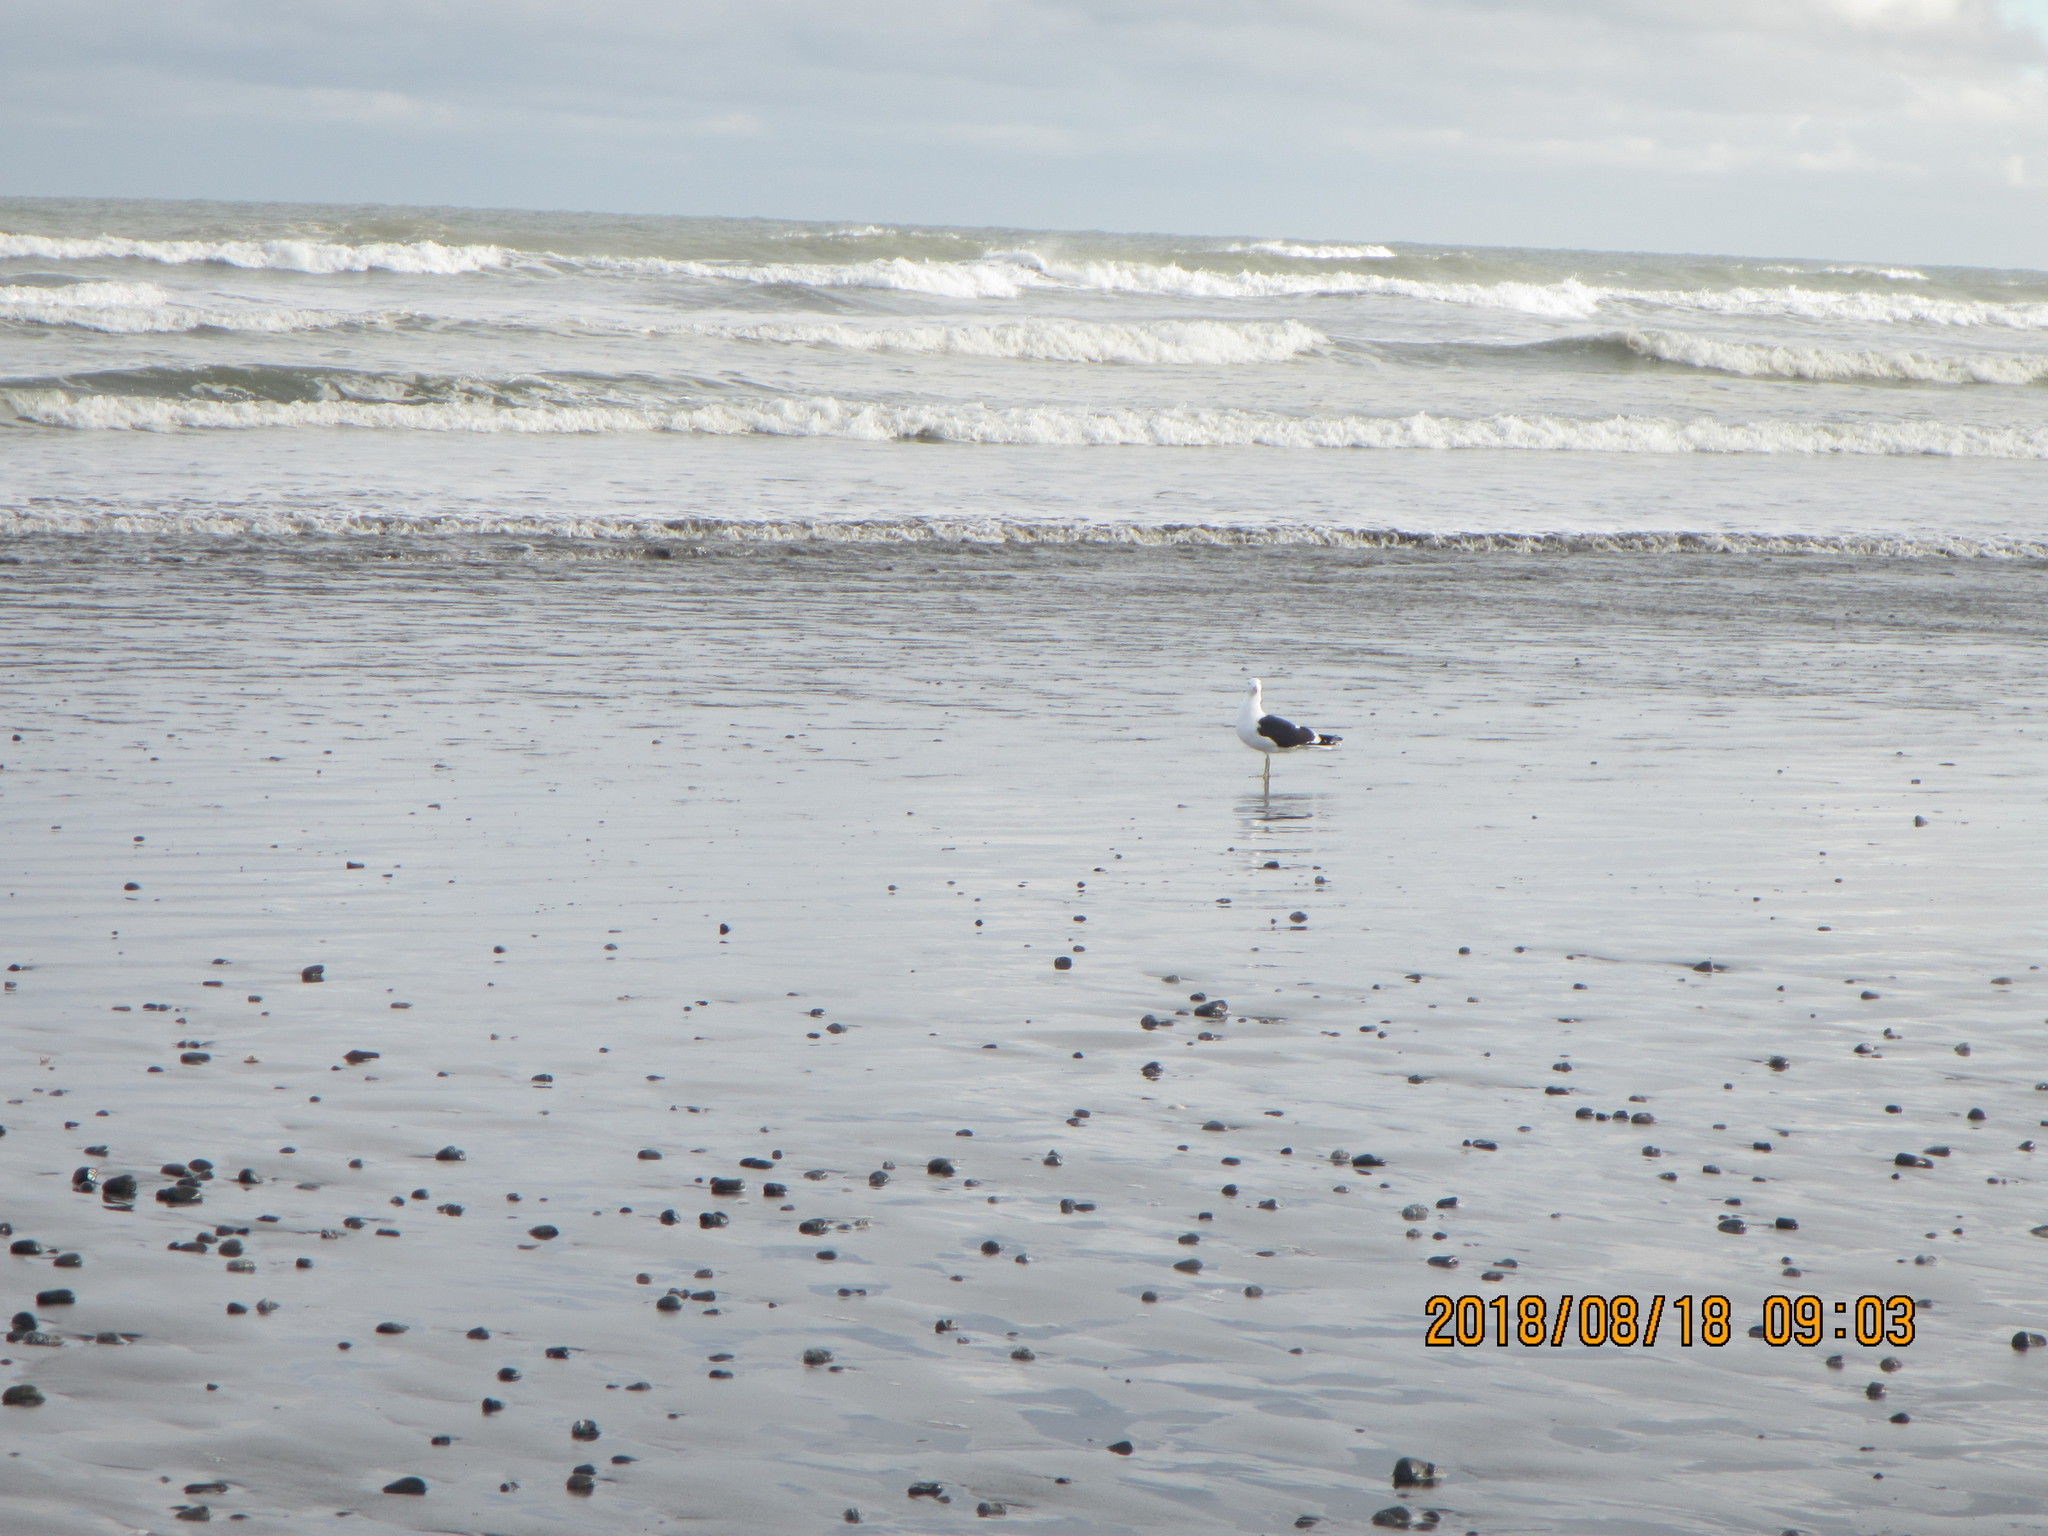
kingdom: Animalia
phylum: Chordata
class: Aves
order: Charadriiformes
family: Laridae
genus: Larus
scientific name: Larus dominicanus
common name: Kelp gull
